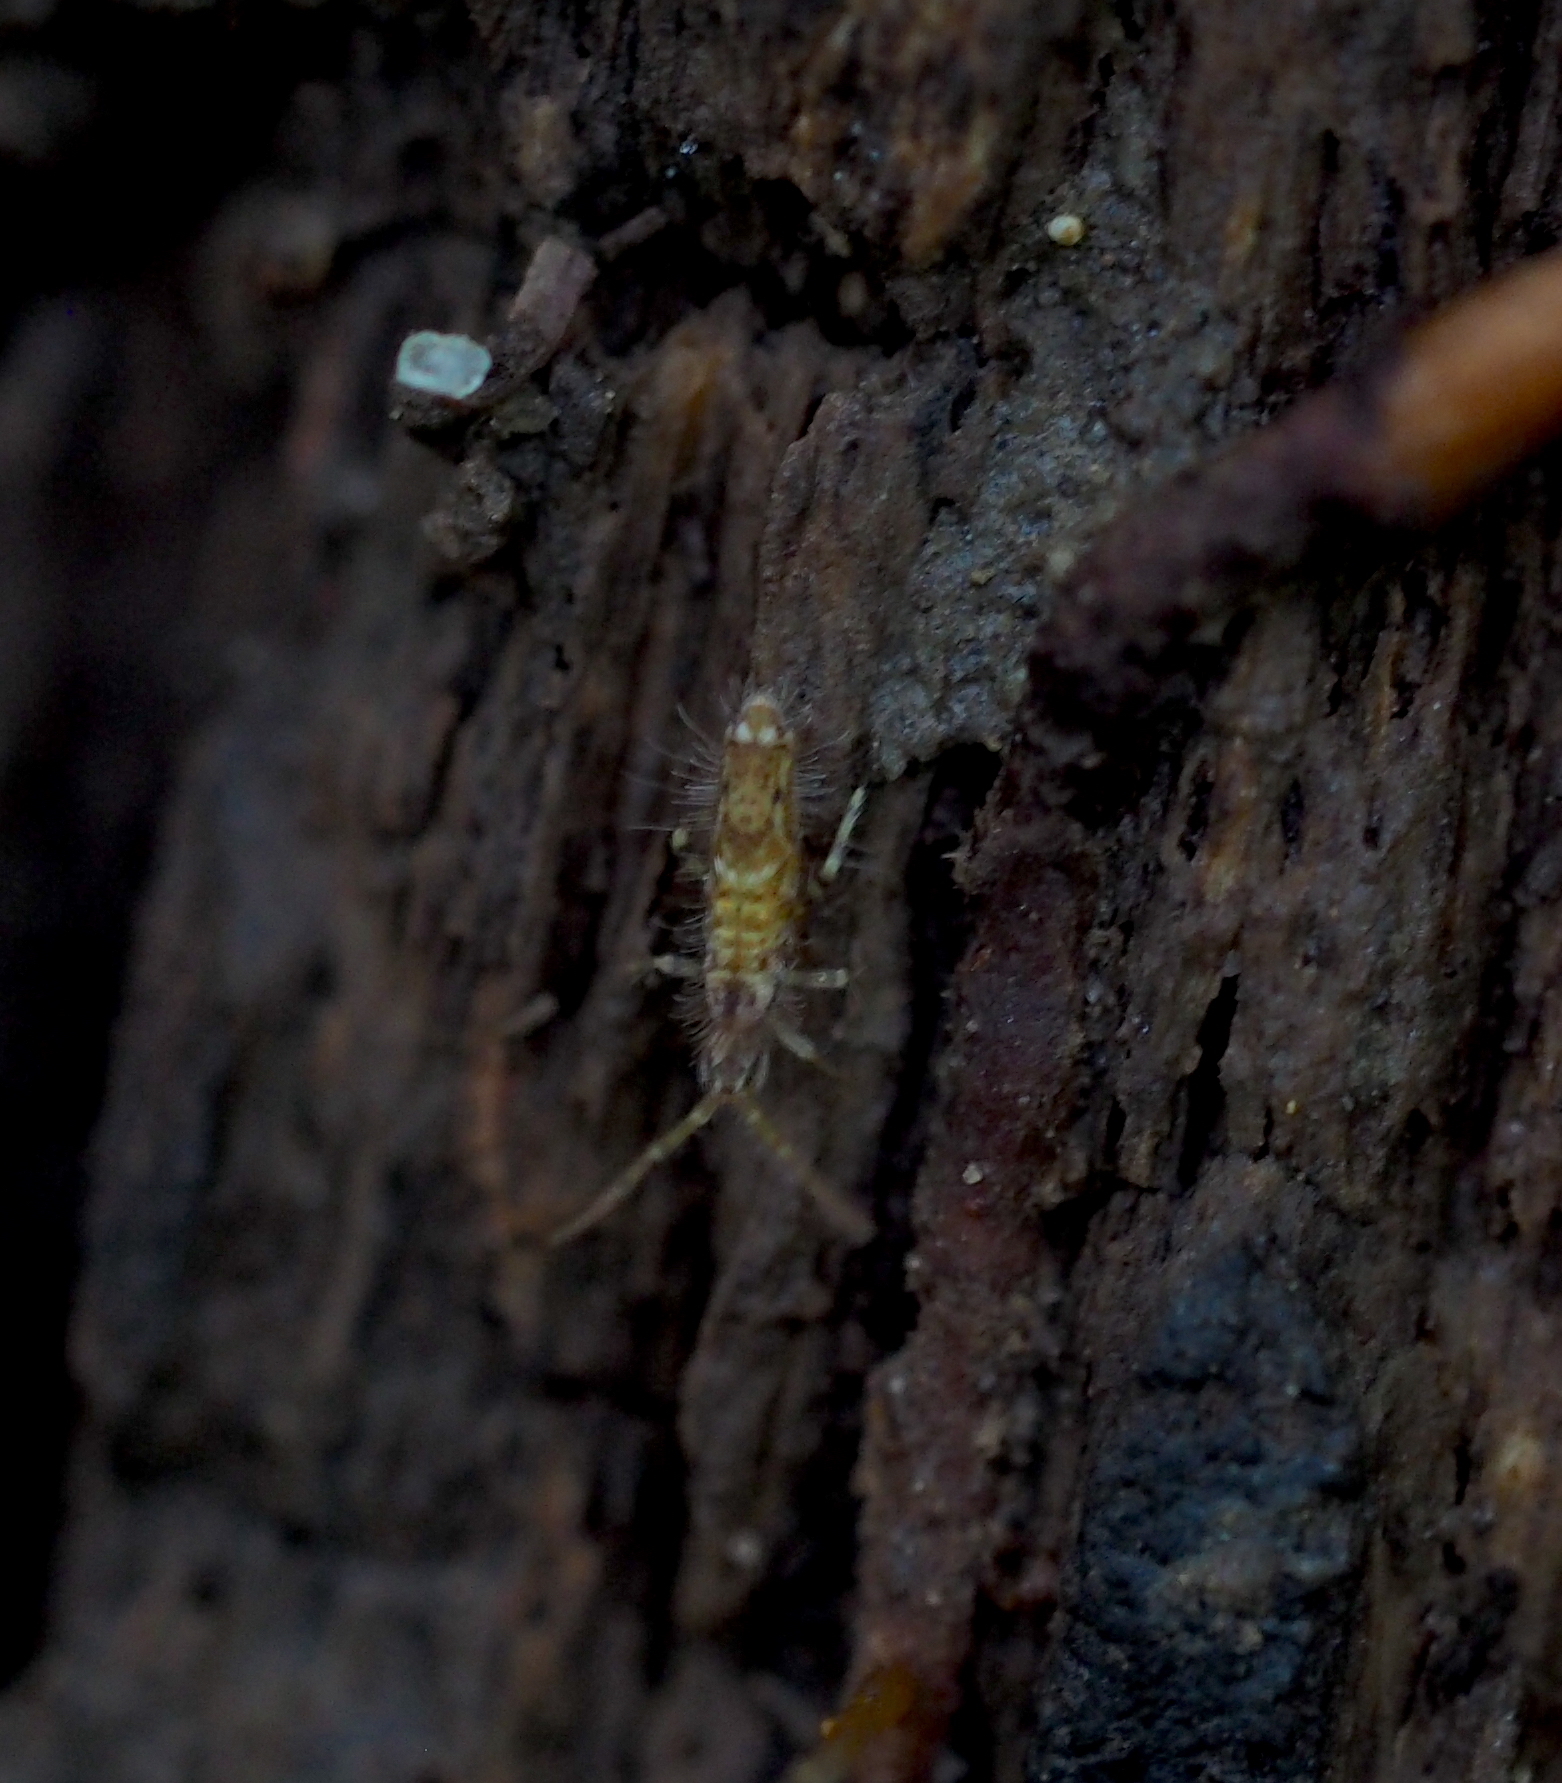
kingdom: Animalia
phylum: Arthropoda
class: Collembola
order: Entomobryomorpha
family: Entomobryidae
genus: Entomobrya
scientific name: Entomobrya dorsalis
